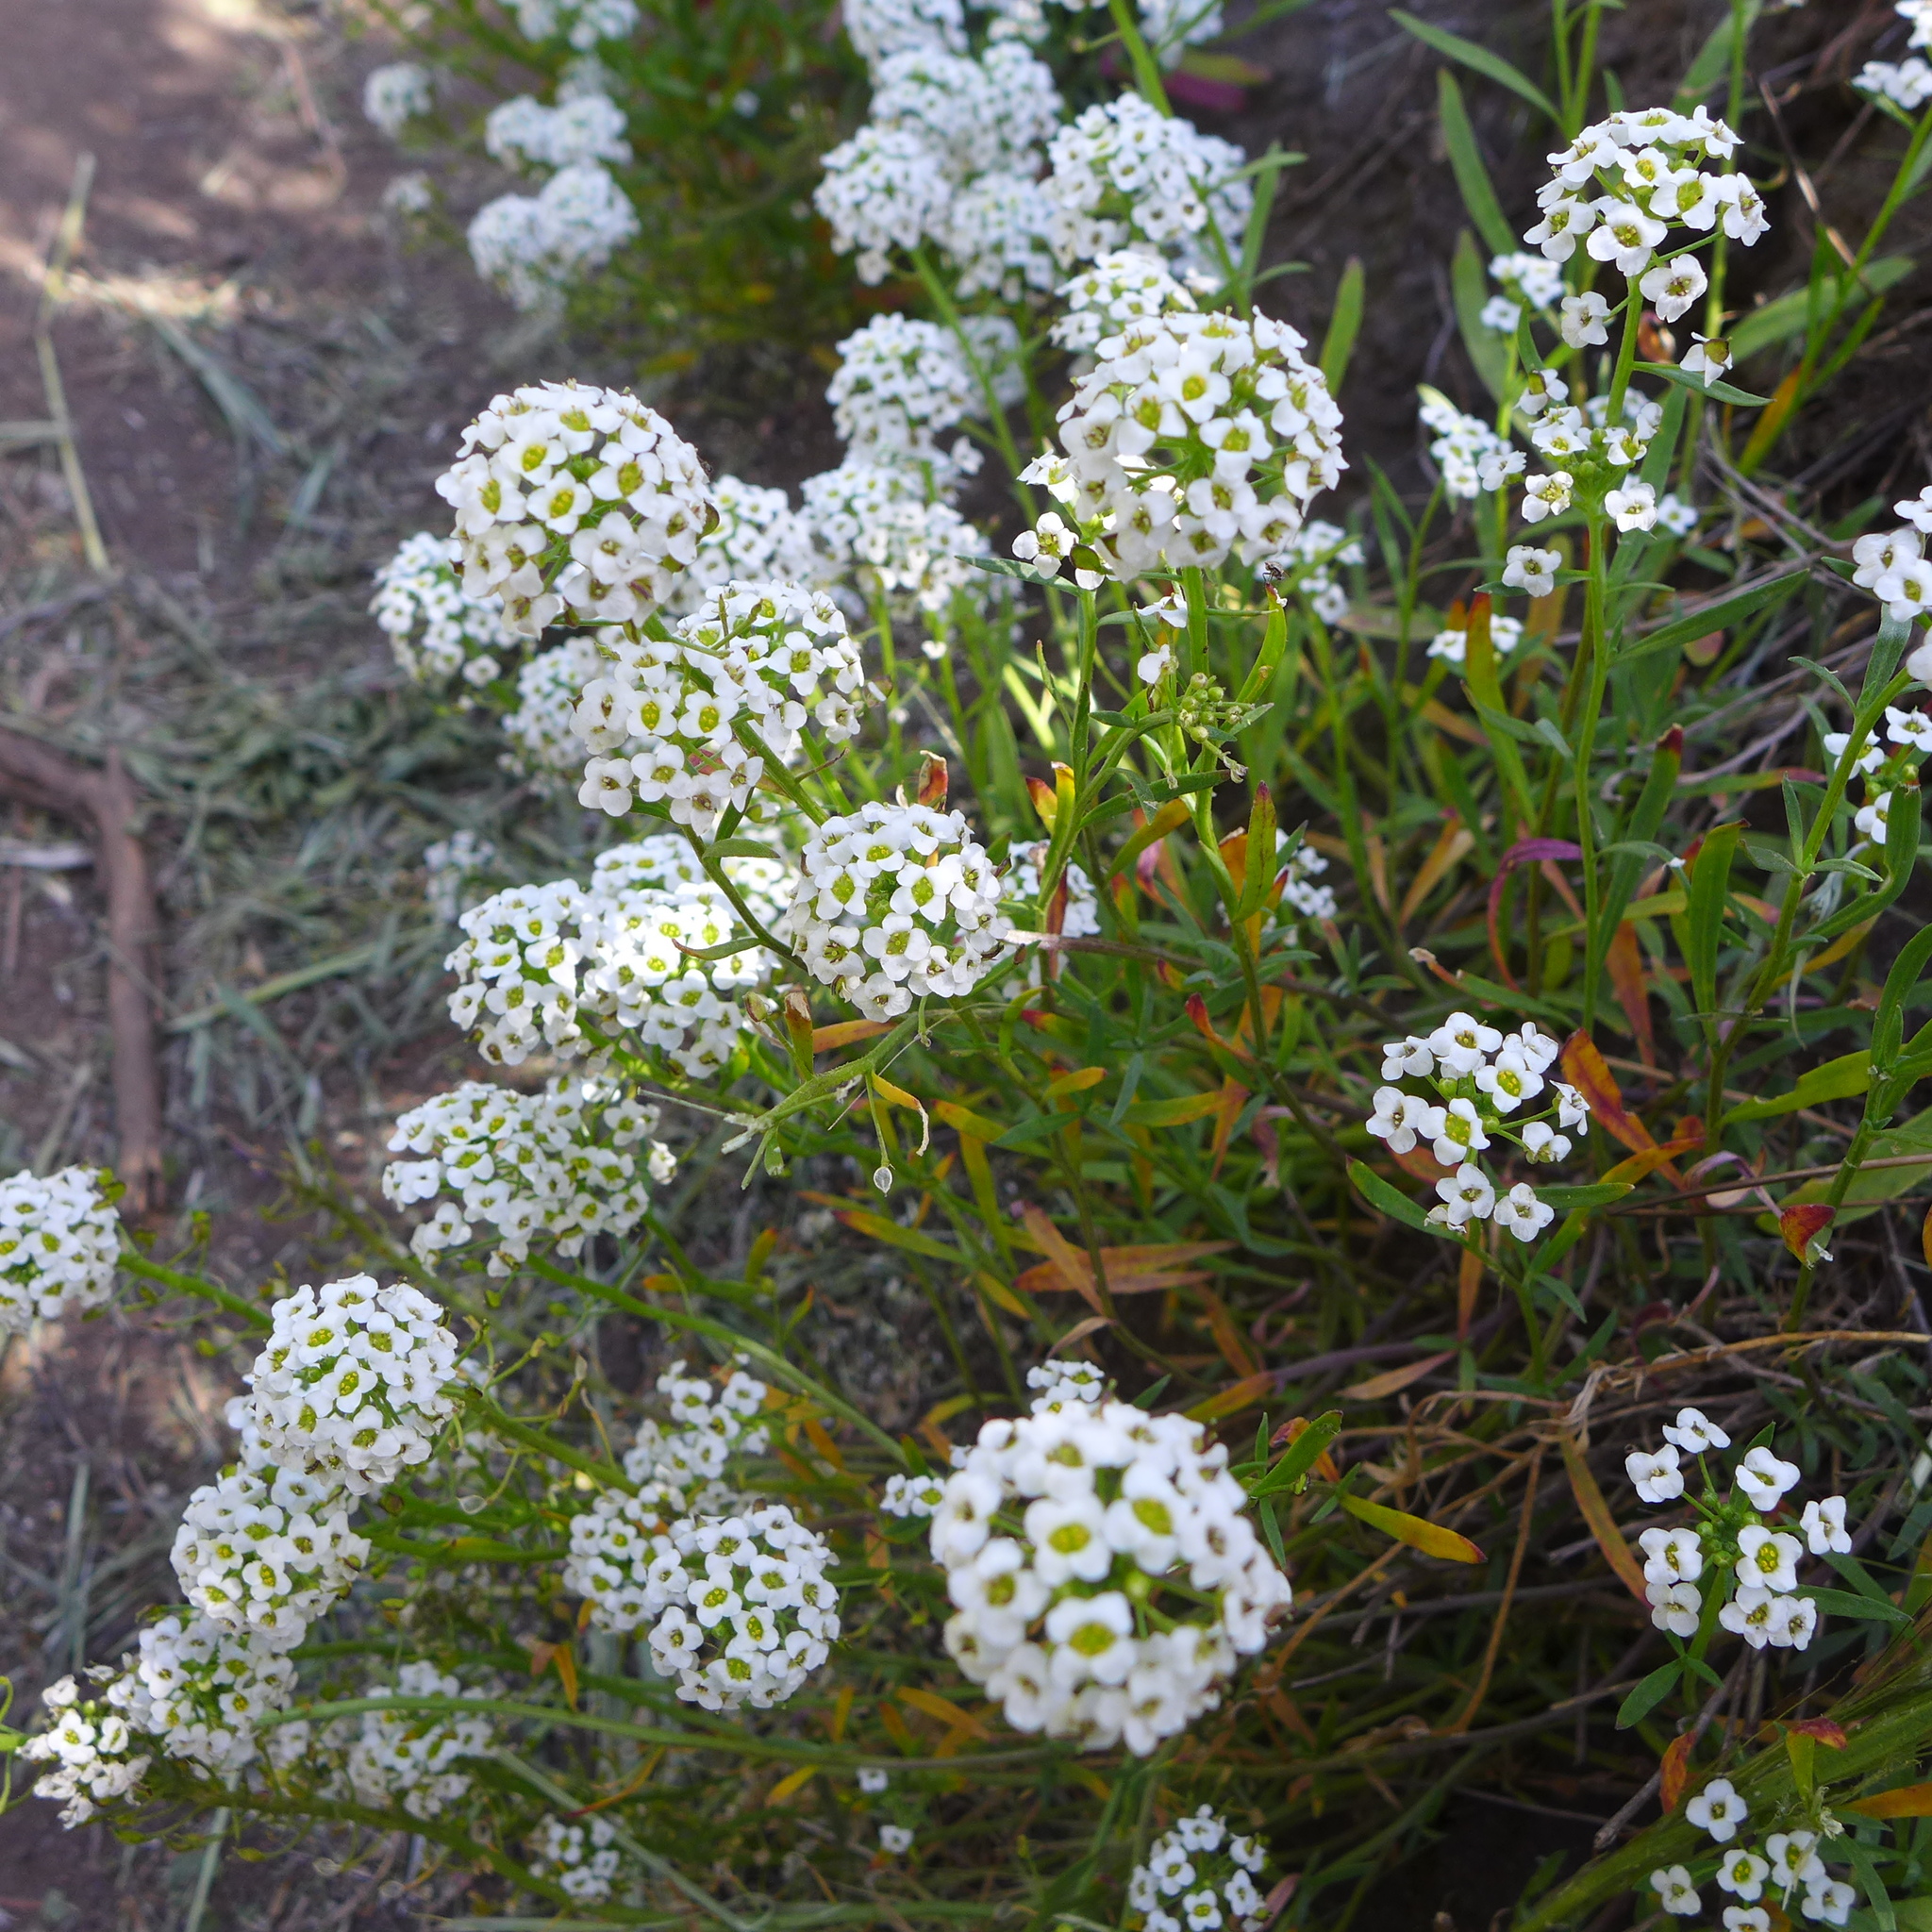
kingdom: Plantae
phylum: Tracheophyta
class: Magnoliopsida
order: Brassicales
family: Brassicaceae
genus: Lobularia
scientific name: Lobularia maritima
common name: Sweet alison
